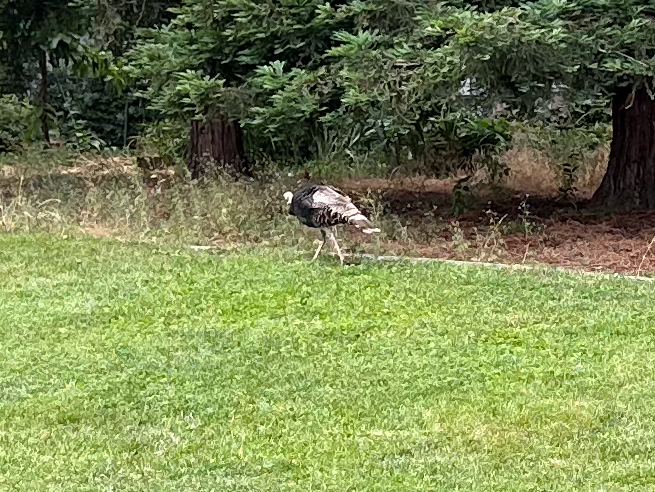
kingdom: Animalia
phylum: Chordata
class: Aves
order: Galliformes
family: Phasianidae
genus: Meleagris
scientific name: Meleagris gallopavo
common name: Wild turkey
